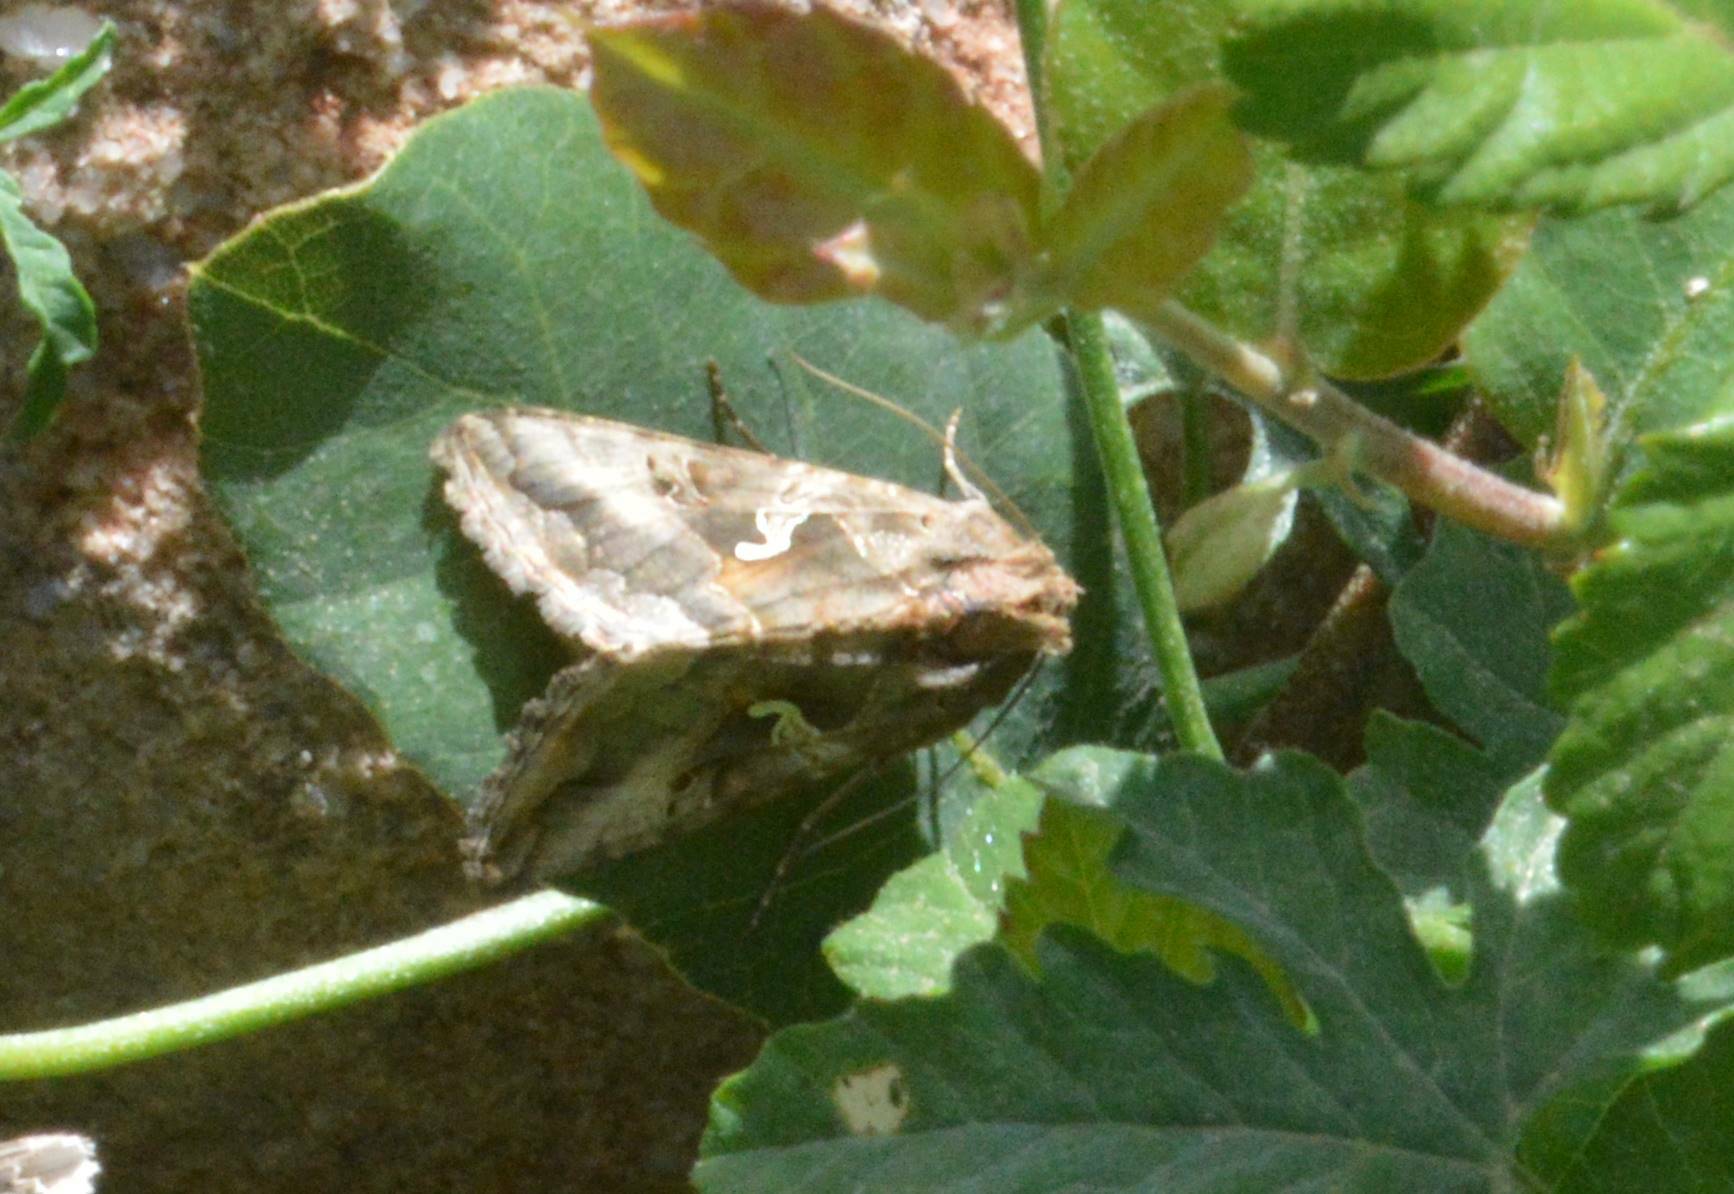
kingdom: Animalia
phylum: Arthropoda
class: Insecta
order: Lepidoptera
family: Noctuidae
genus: Autographa
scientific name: Autographa gamma
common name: Silver y
